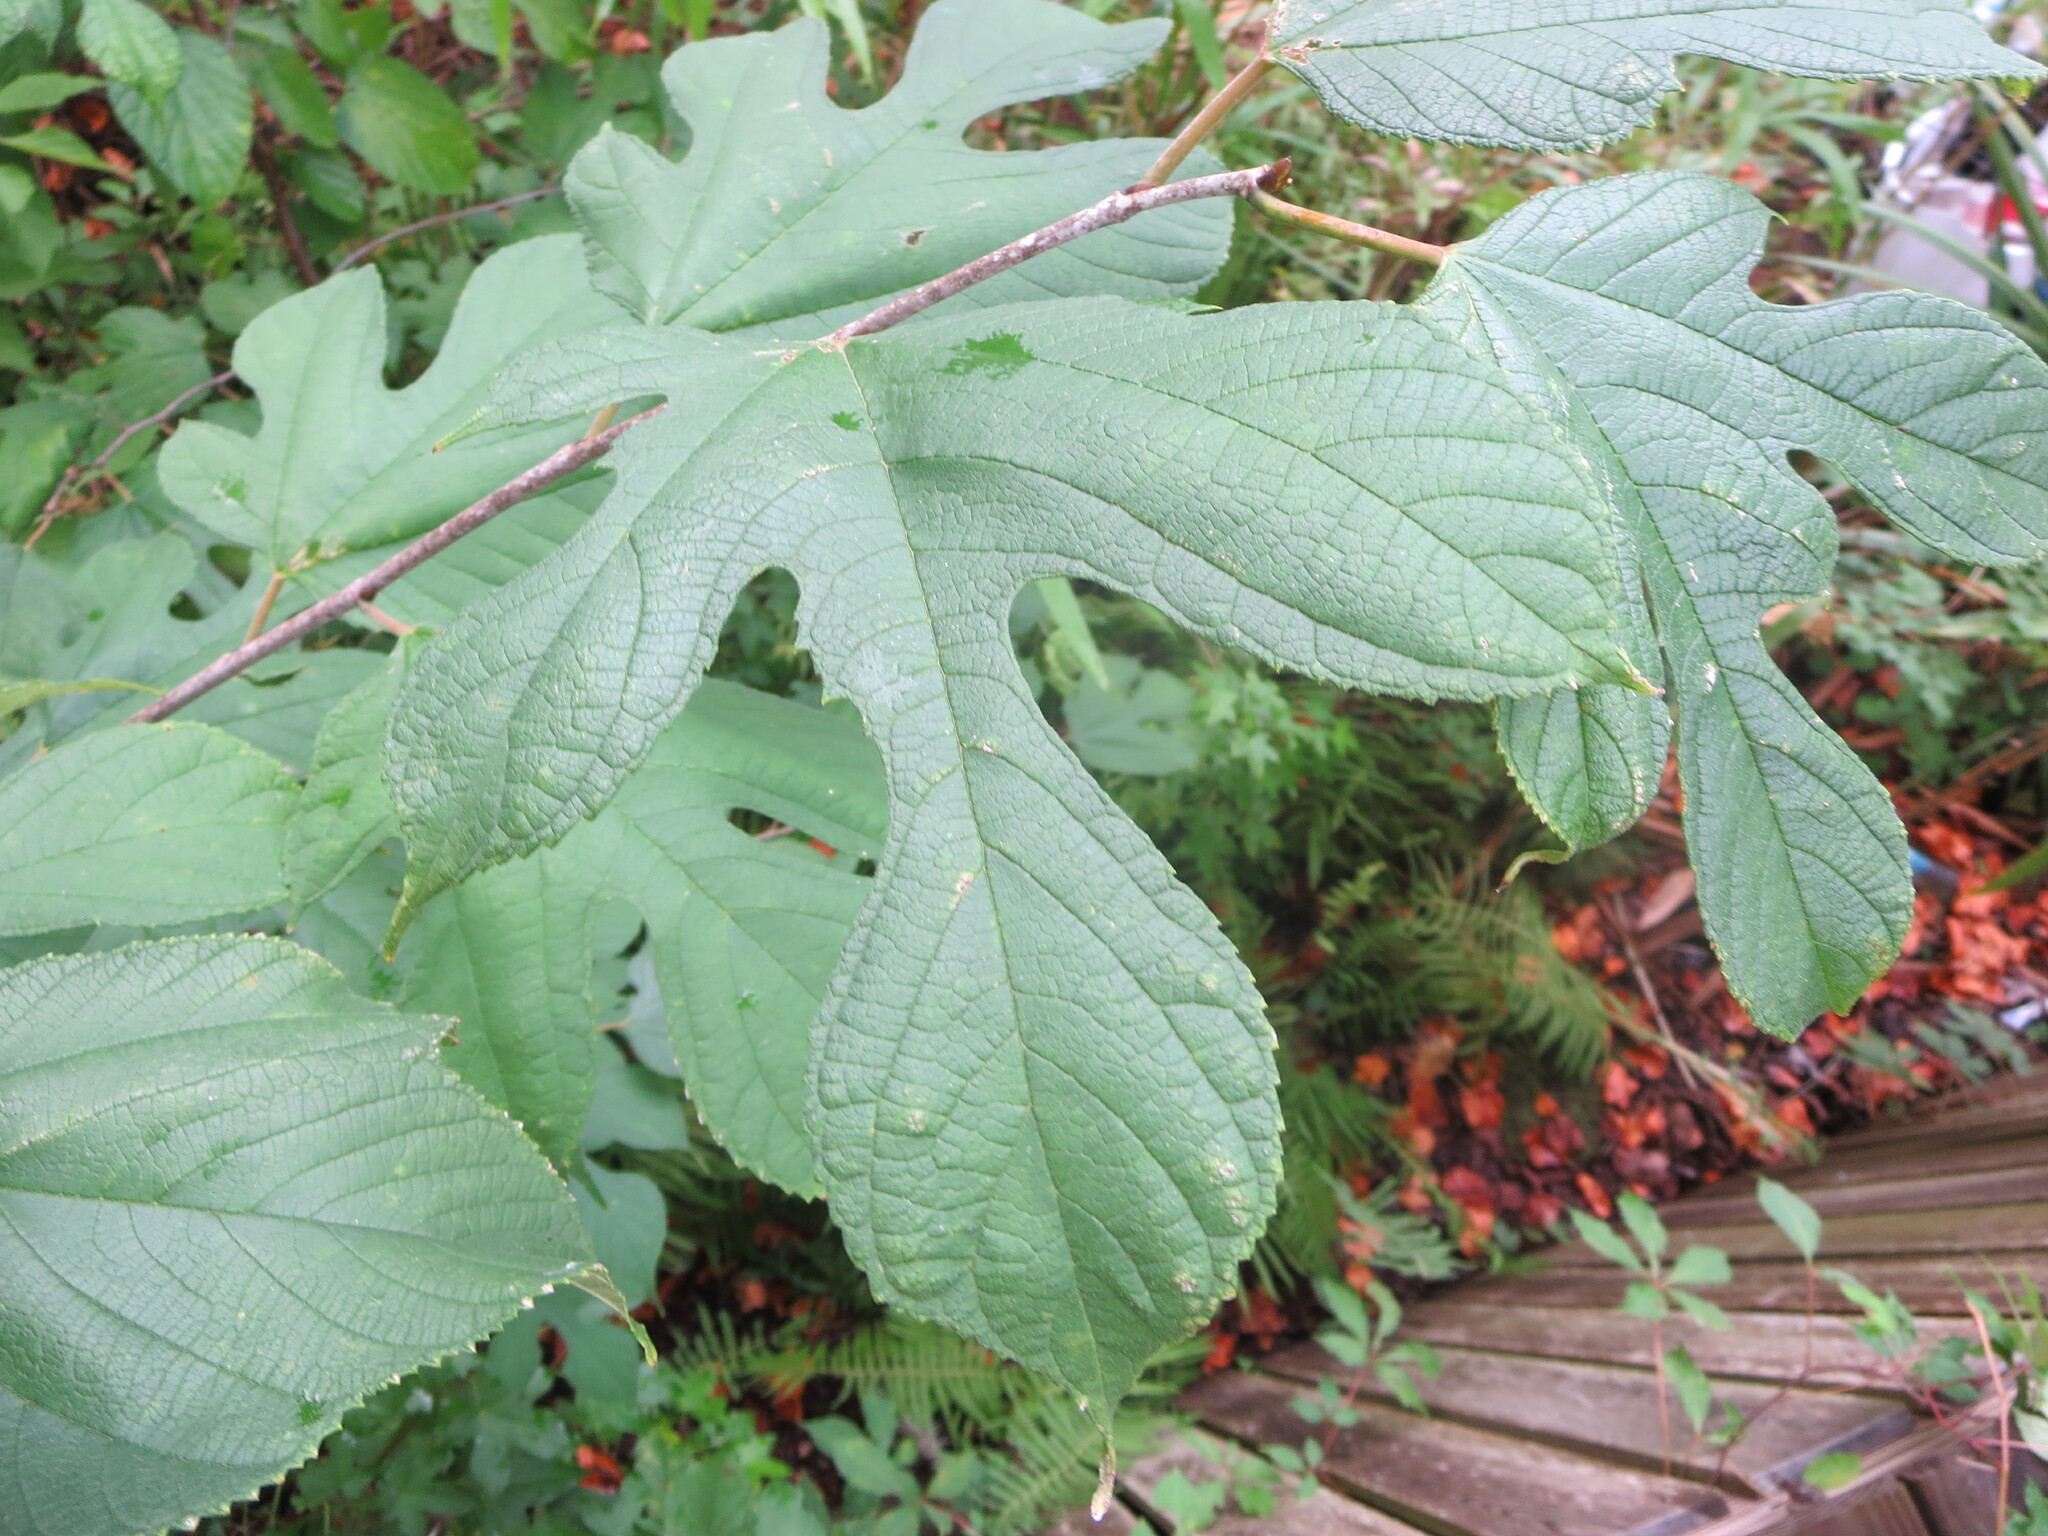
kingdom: Plantae
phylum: Tracheophyta
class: Magnoliopsida
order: Rosales
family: Moraceae
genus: Morus
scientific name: Morus rubra
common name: Red mulberry
